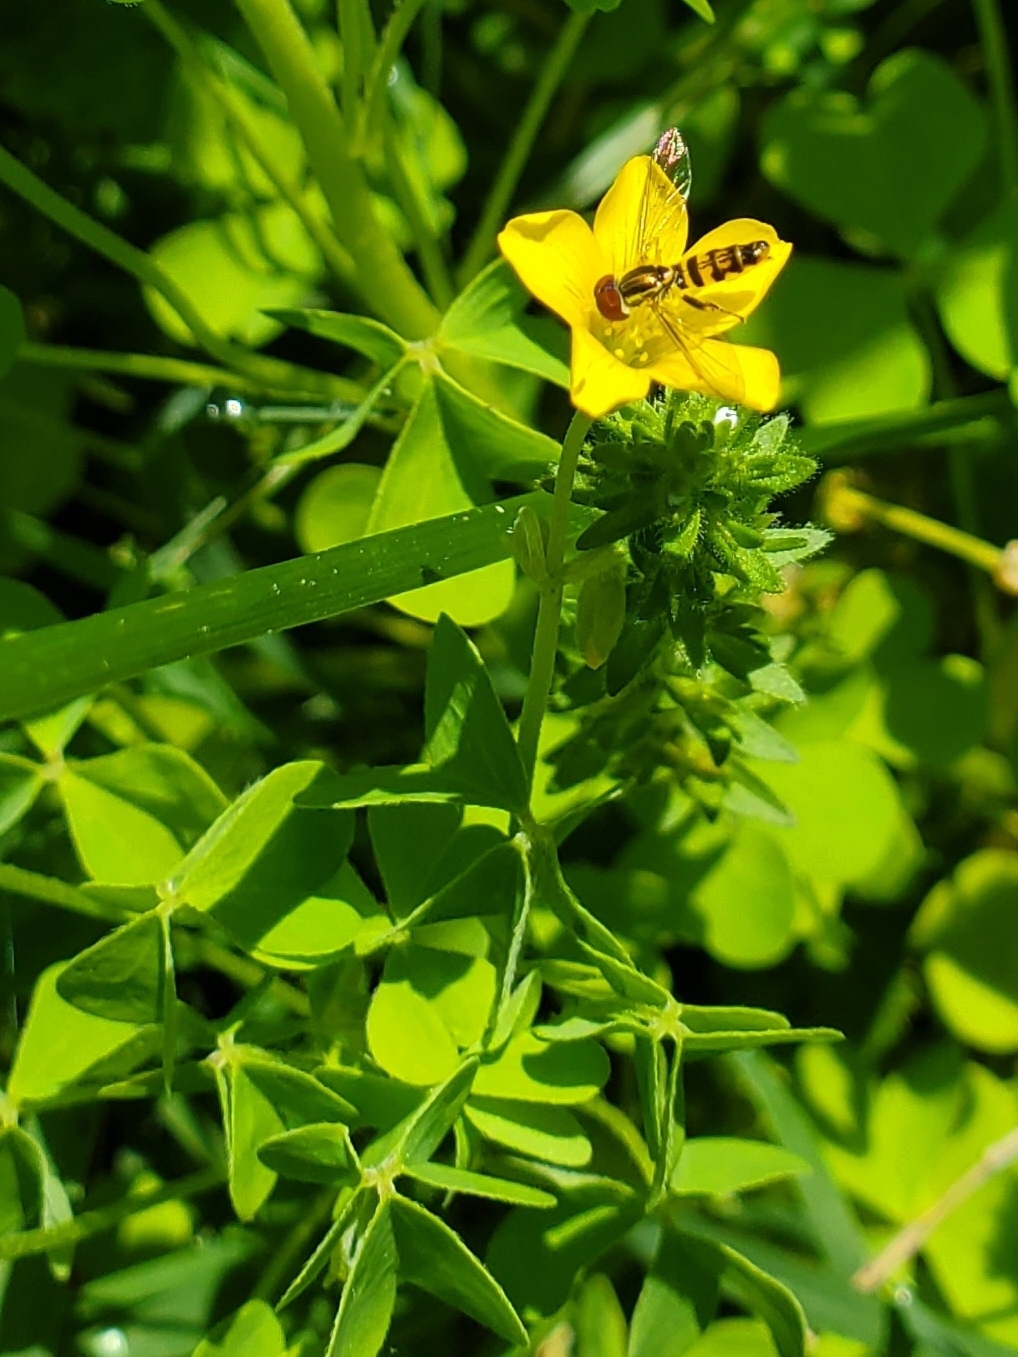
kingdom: Animalia
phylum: Arthropoda
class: Insecta
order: Diptera
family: Syrphidae
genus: Toxomerus
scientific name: Toxomerus geminatus
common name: Eastern calligrapher
